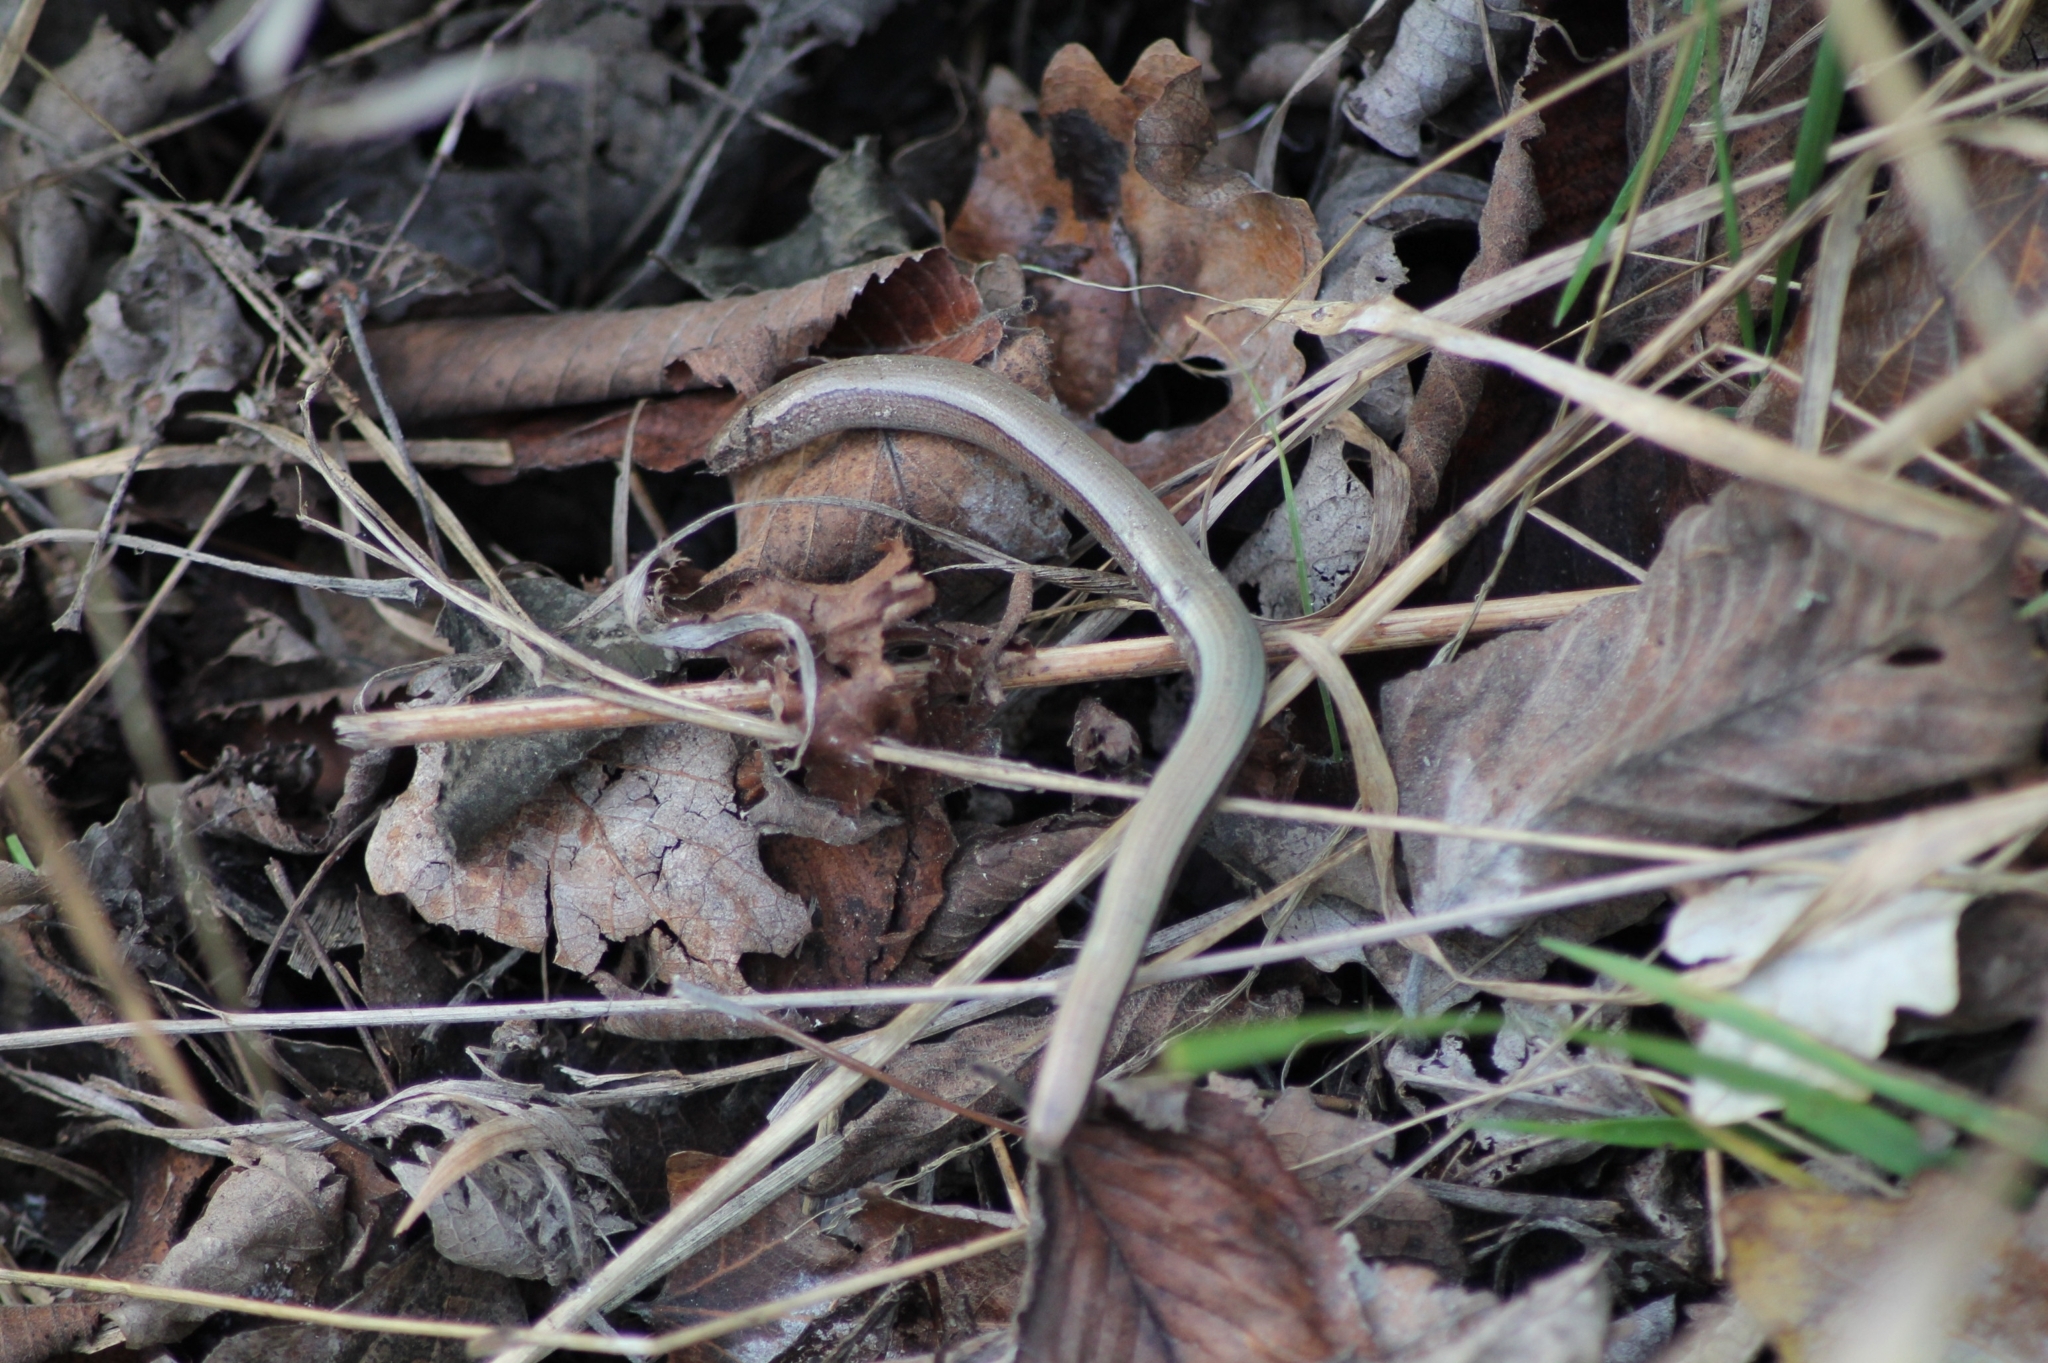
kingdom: Animalia
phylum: Chordata
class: Squamata
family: Anguidae
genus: Anguis
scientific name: Anguis fragilis
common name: Slow worm
